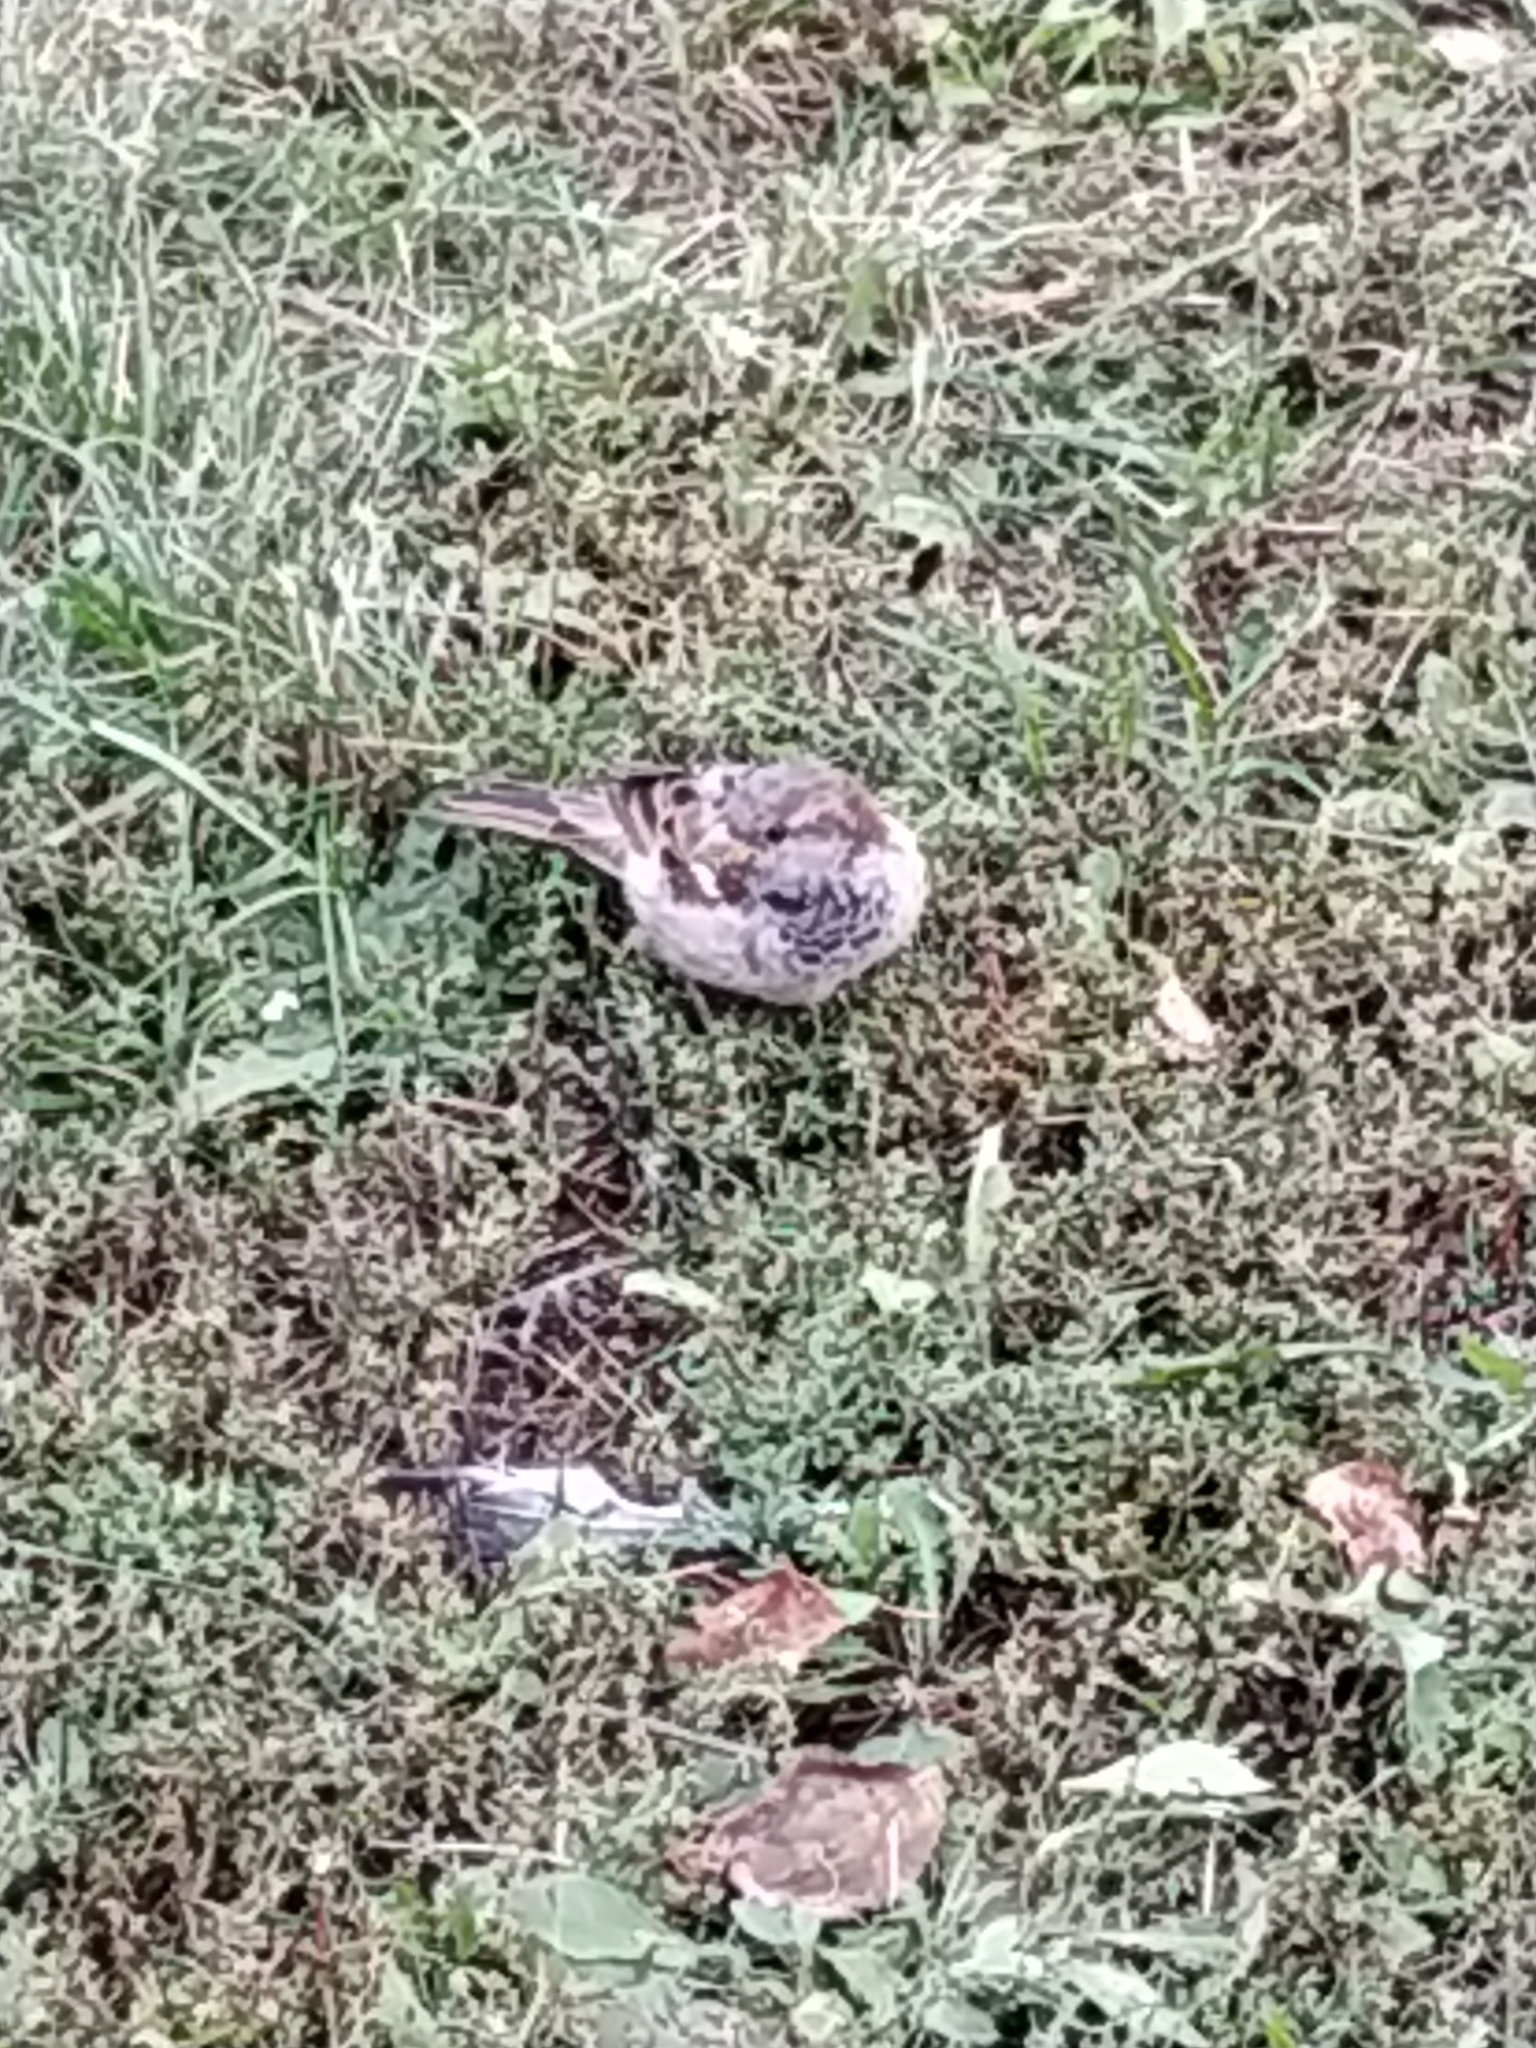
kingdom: Animalia
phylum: Chordata
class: Aves
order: Passeriformes
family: Passeridae
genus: Passer
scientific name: Passer domesticus
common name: House sparrow
